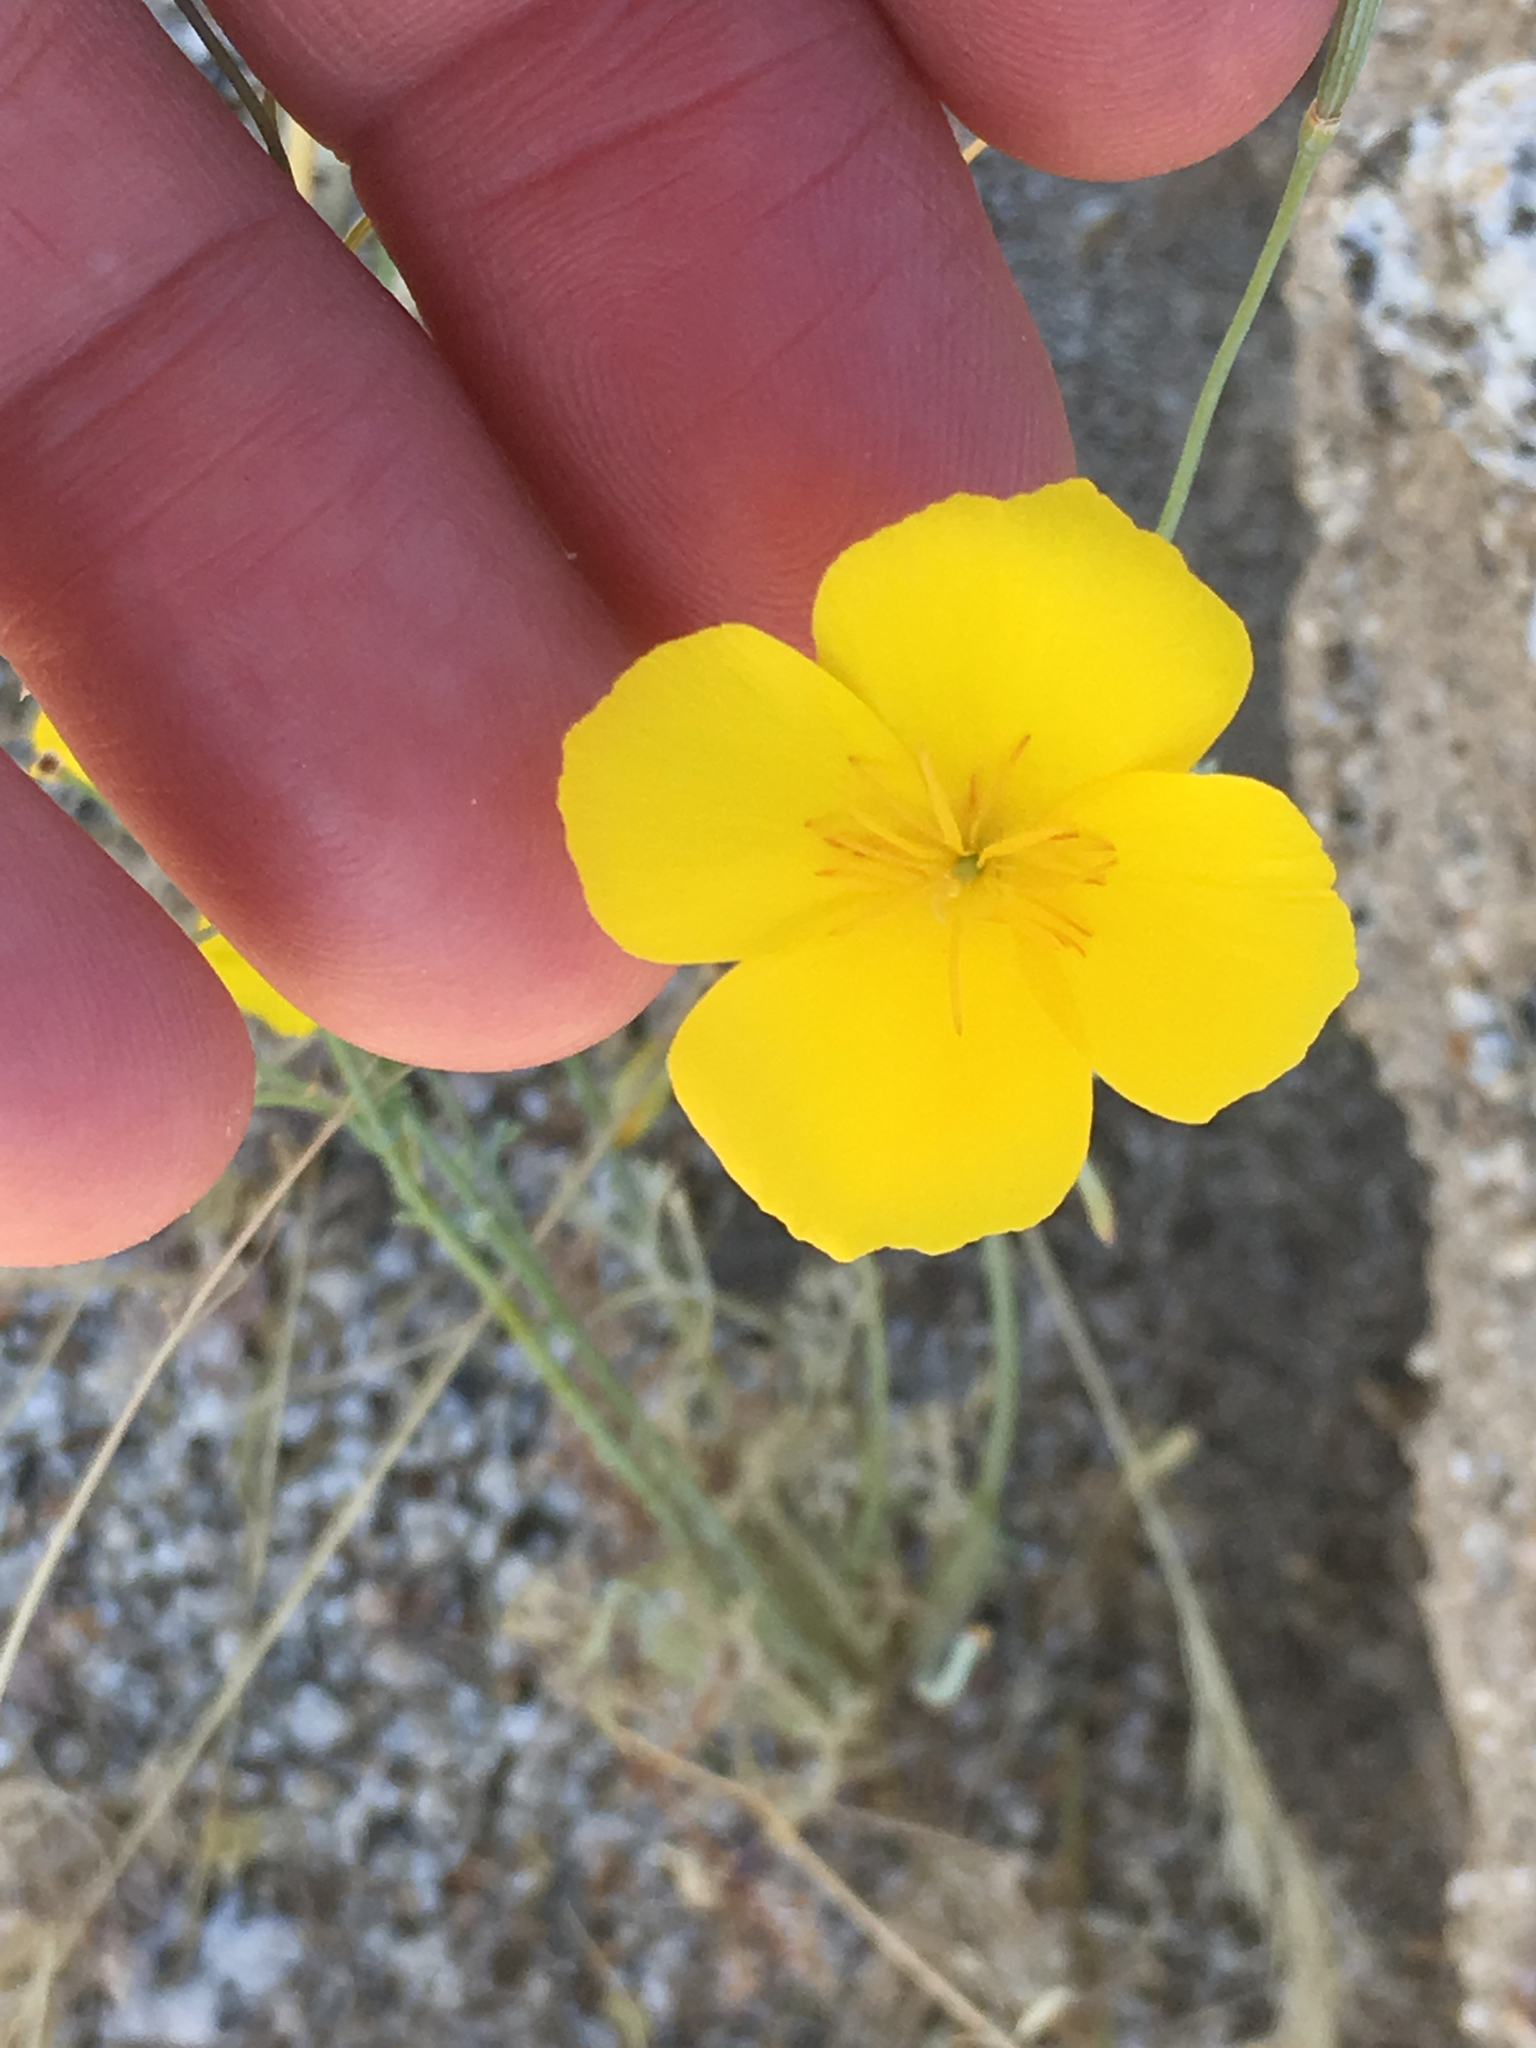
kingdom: Plantae
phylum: Tracheophyta
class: Magnoliopsida
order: Ranunculales
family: Papaveraceae
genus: Eschscholzia
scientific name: Eschscholzia parishii
